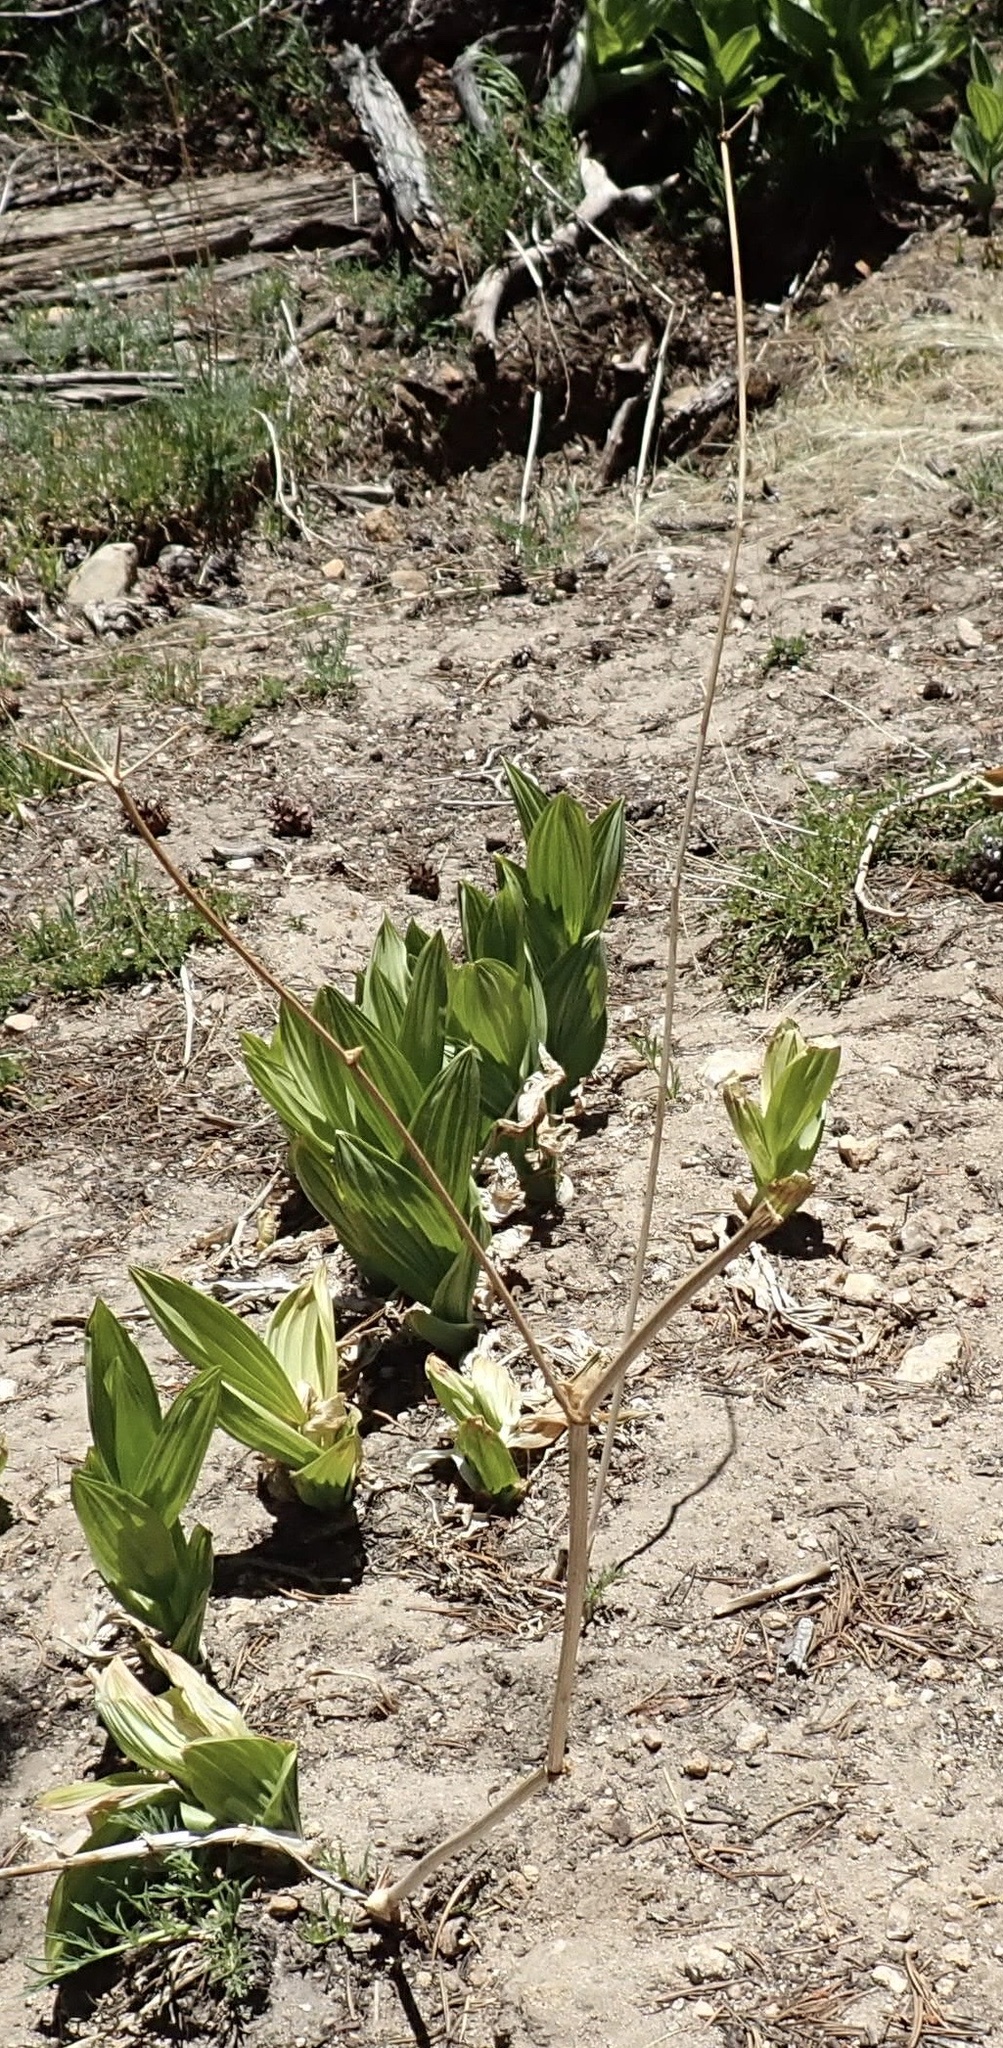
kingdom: Plantae
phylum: Tracheophyta
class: Liliopsida
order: Liliales
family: Melanthiaceae
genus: Veratrum
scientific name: Veratrum californicum
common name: California veratrum
